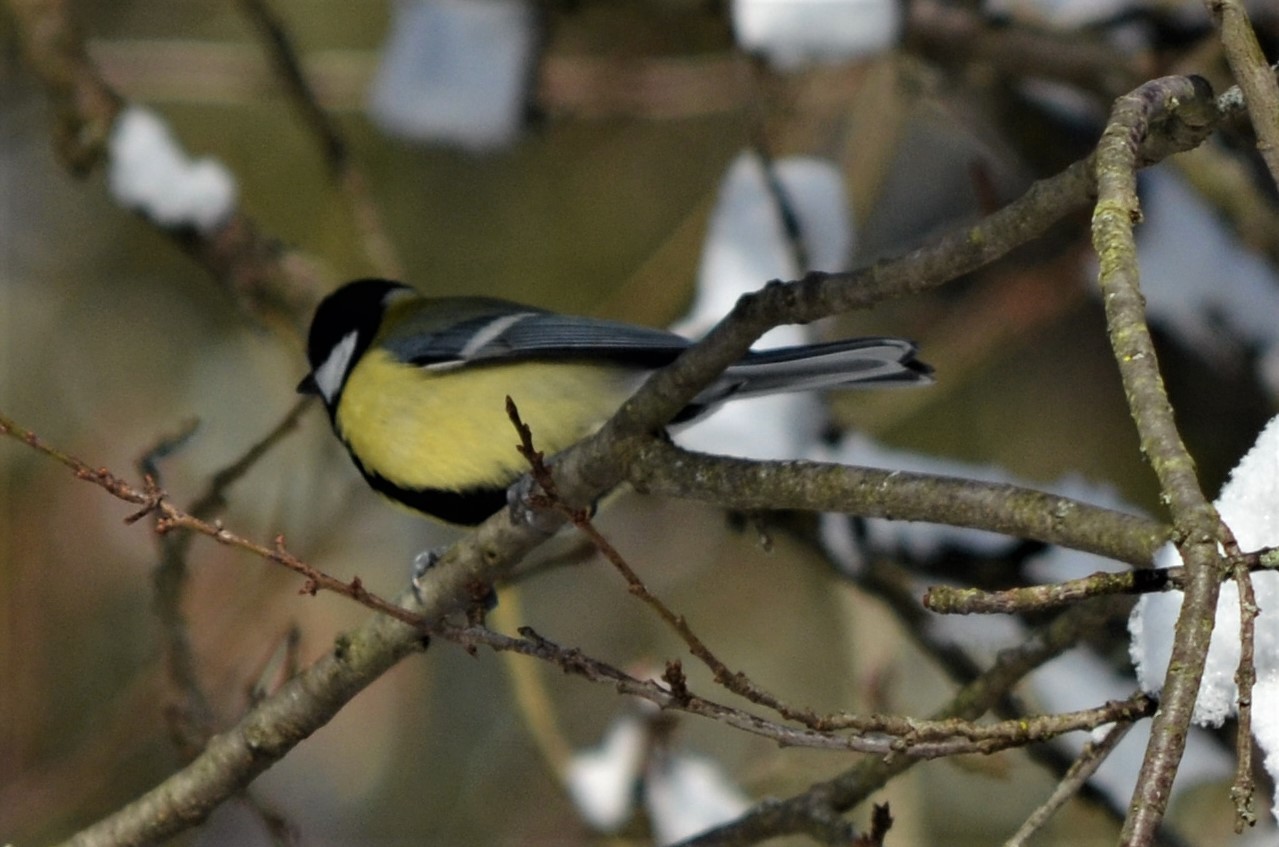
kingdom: Animalia
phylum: Chordata
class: Aves
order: Passeriformes
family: Paridae
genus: Parus
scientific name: Parus major
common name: Great tit
